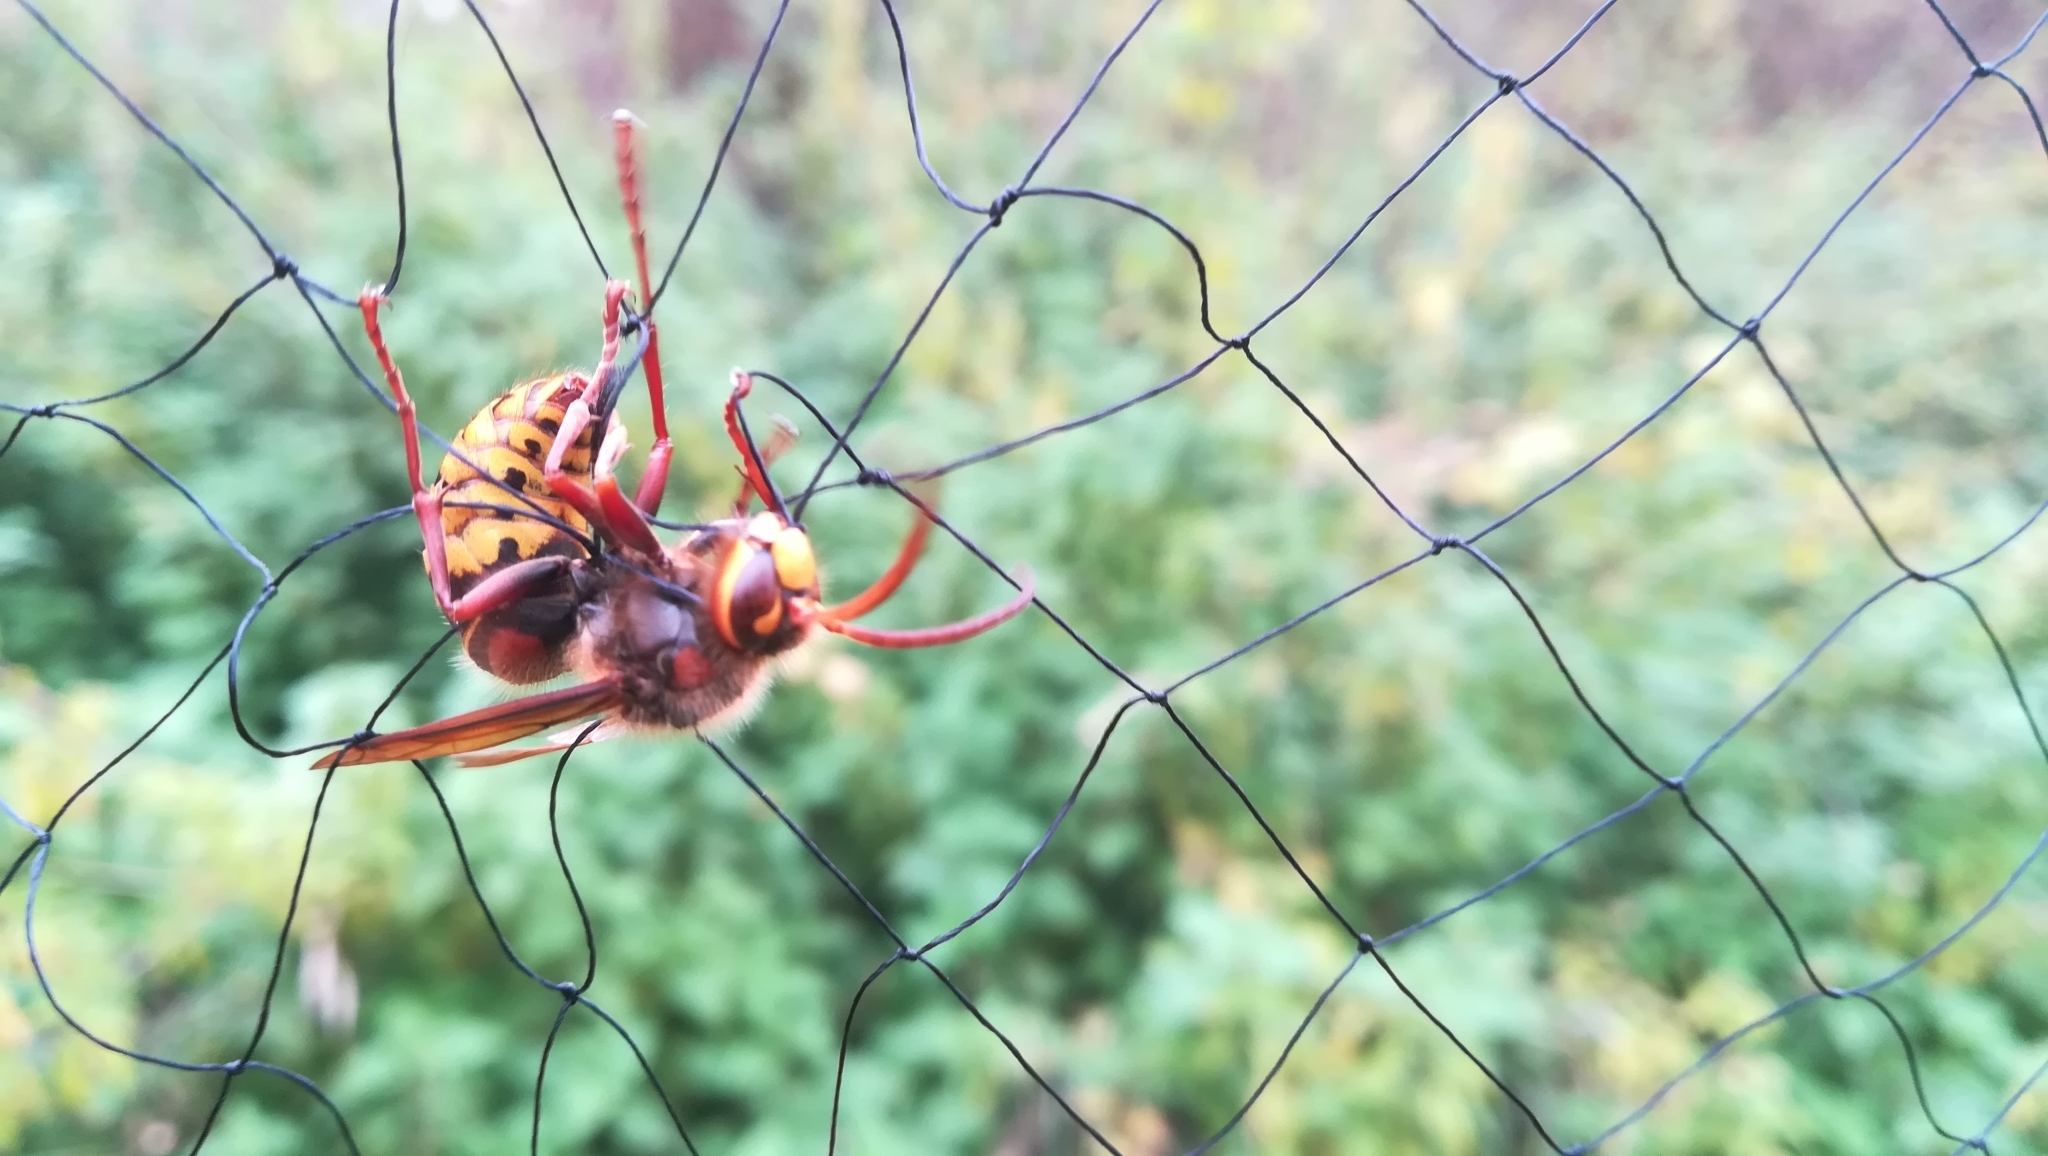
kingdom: Animalia
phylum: Arthropoda
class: Insecta
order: Hymenoptera
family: Vespidae
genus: Vespa
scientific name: Vespa crabro
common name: Hornet
